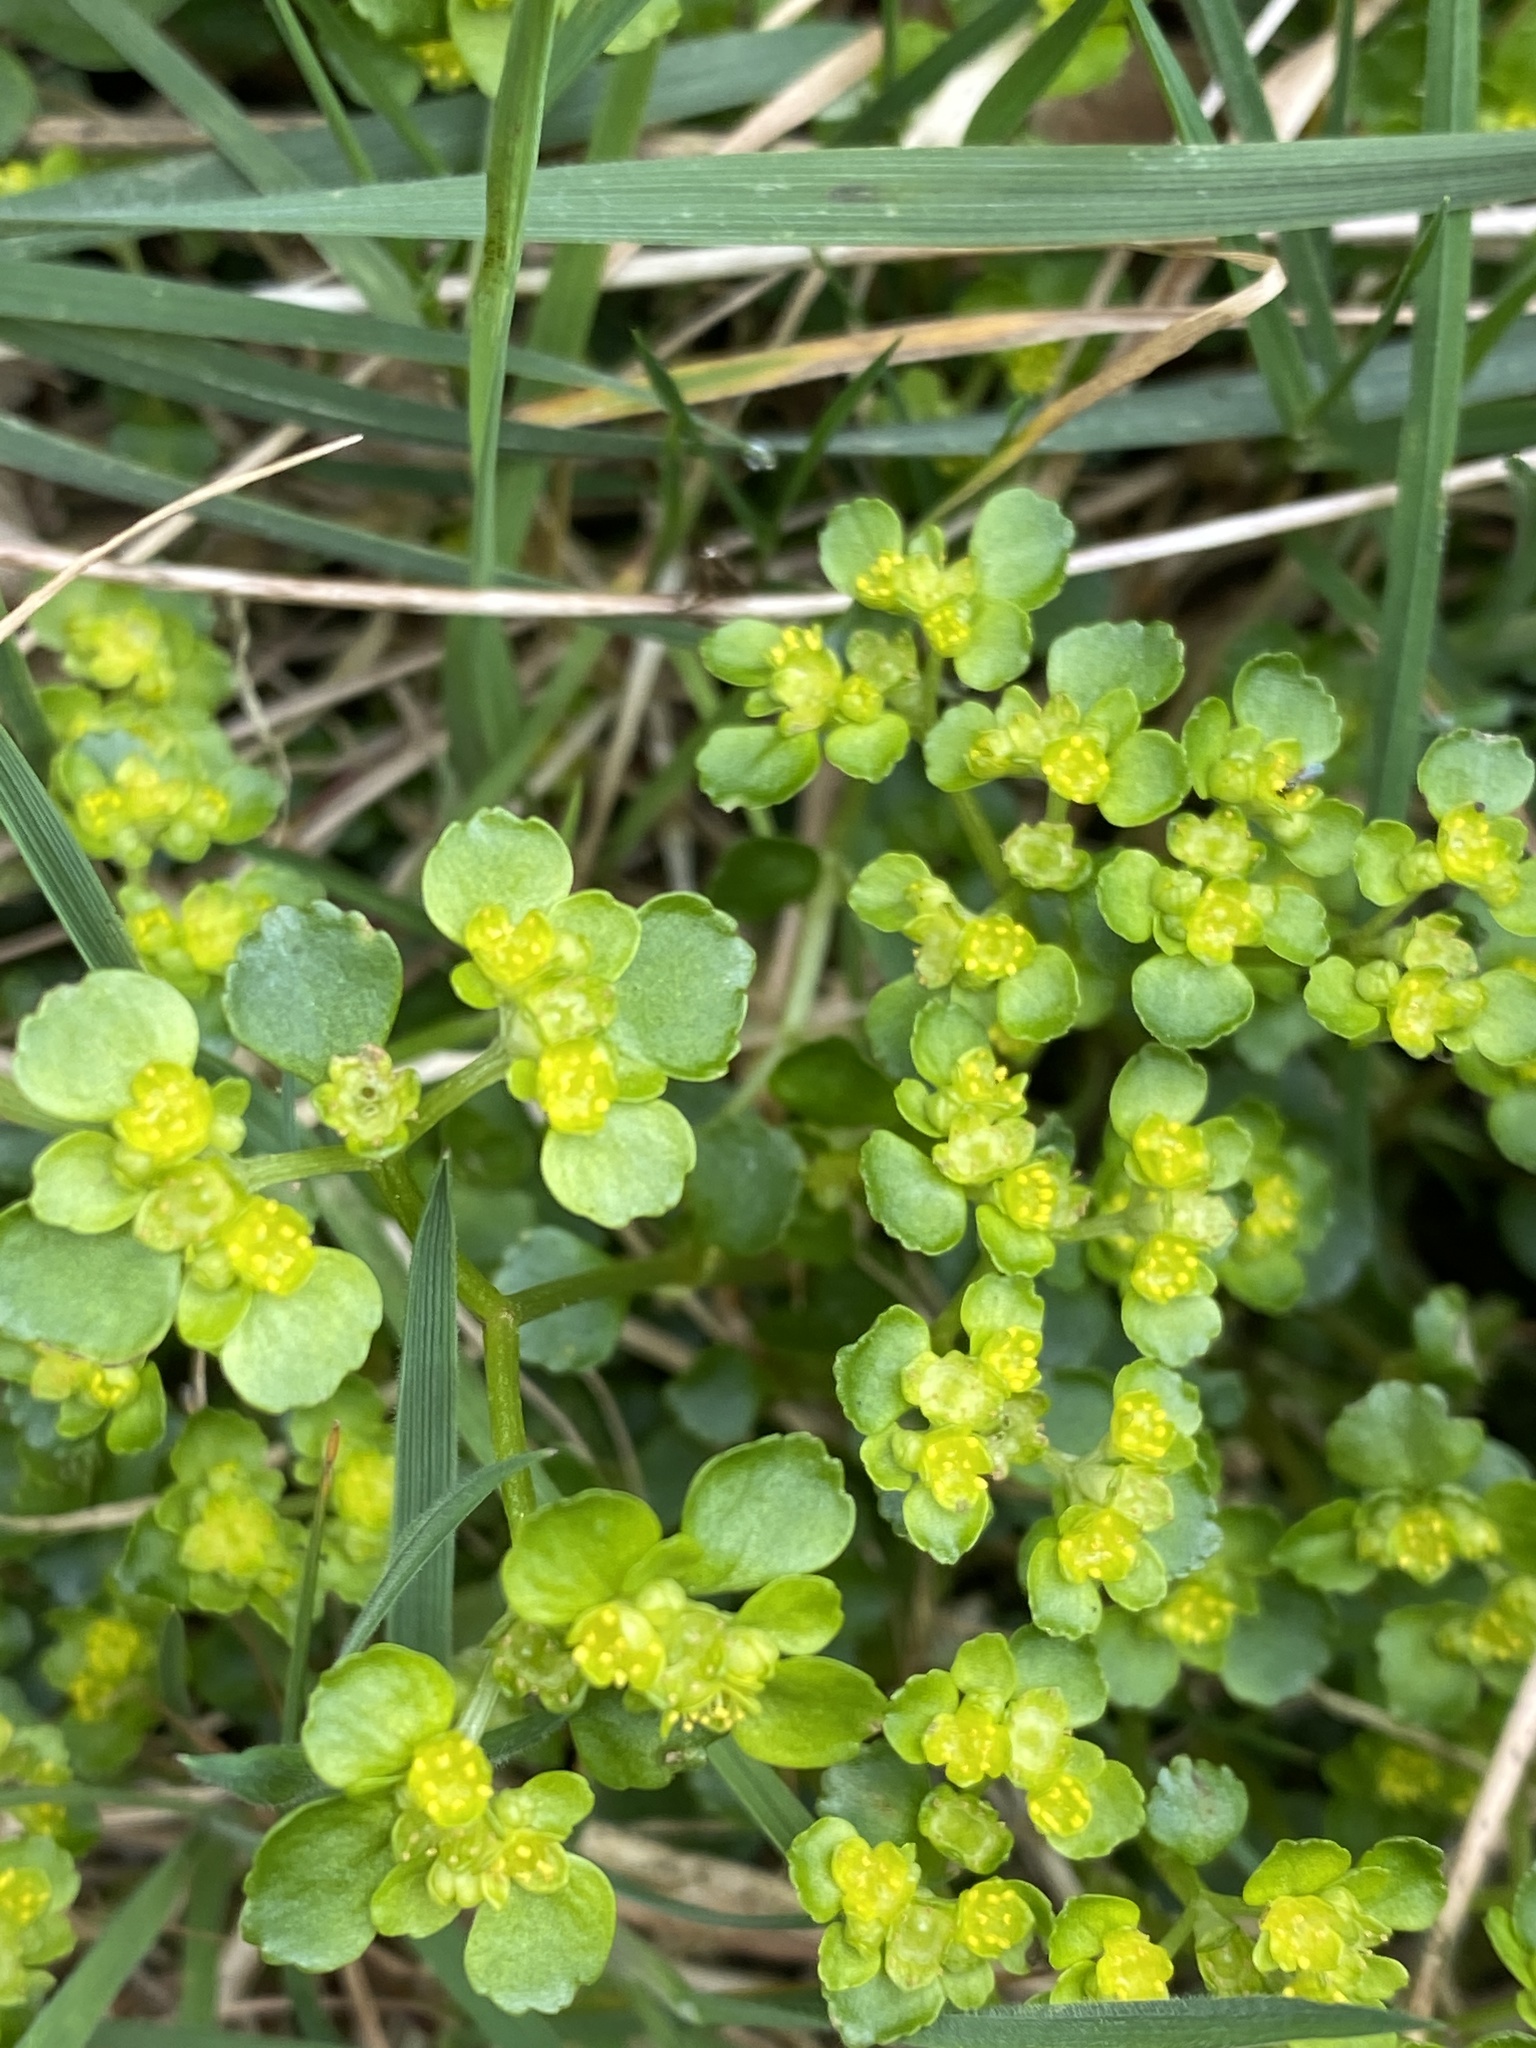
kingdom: Plantae
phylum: Tracheophyta
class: Magnoliopsida
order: Saxifragales
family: Saxifragaceae
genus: Chrysosplenium
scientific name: Chrysosplenium oppositifolium
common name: Opposite-leaved golden-saxifrage
